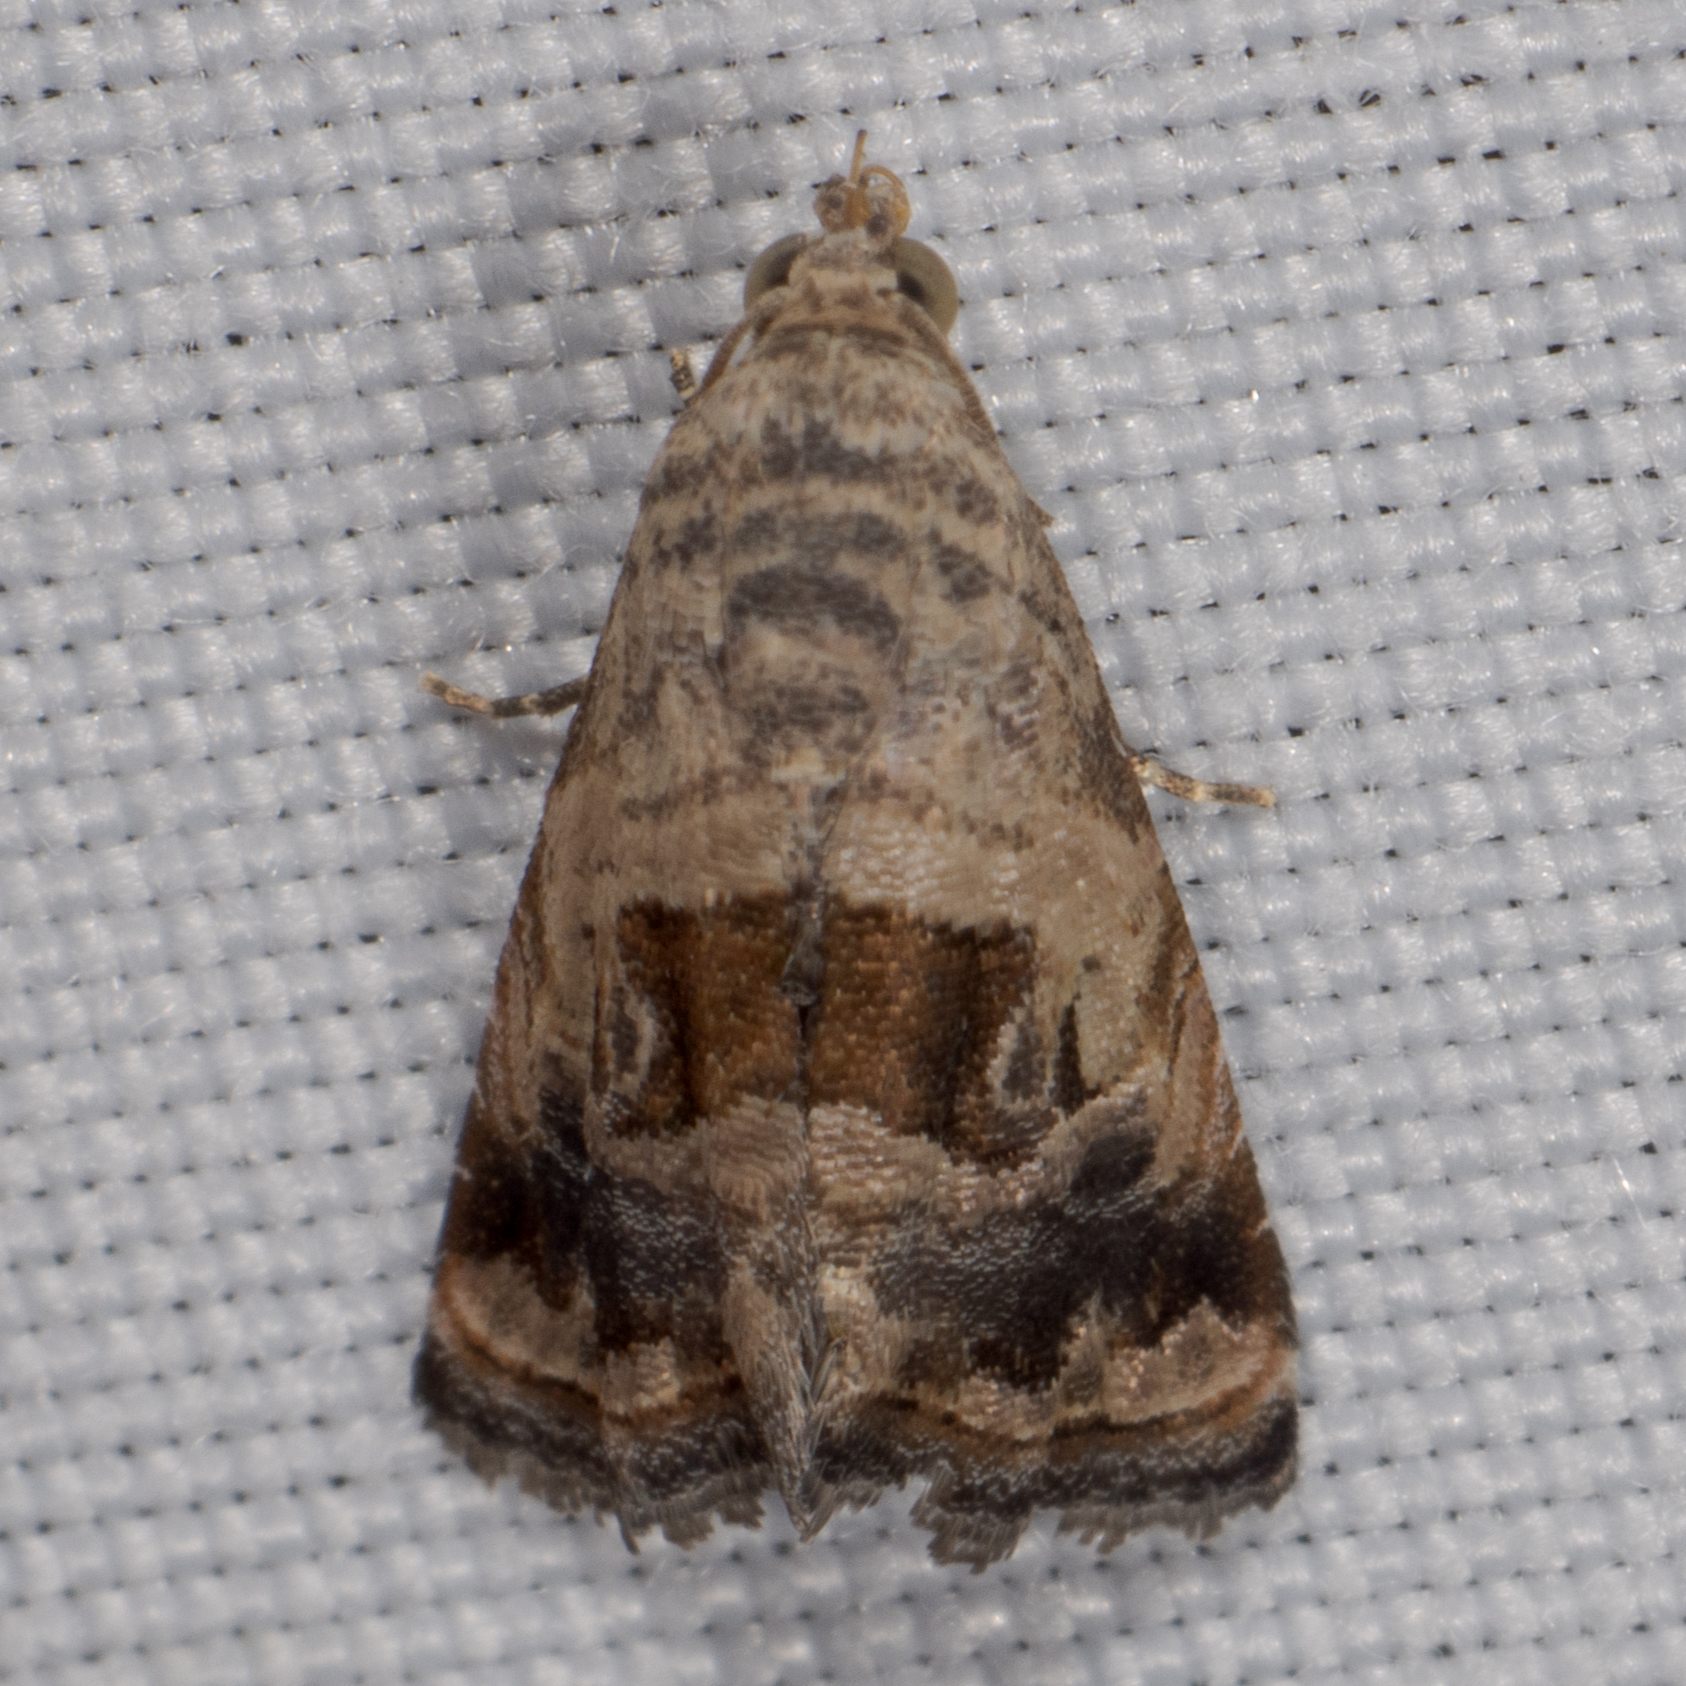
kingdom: Animalia
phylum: Arthropoda
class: Insecta
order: Lepidoptera
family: Noctuidae
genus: Tripudia
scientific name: Tripudia quadrifera
